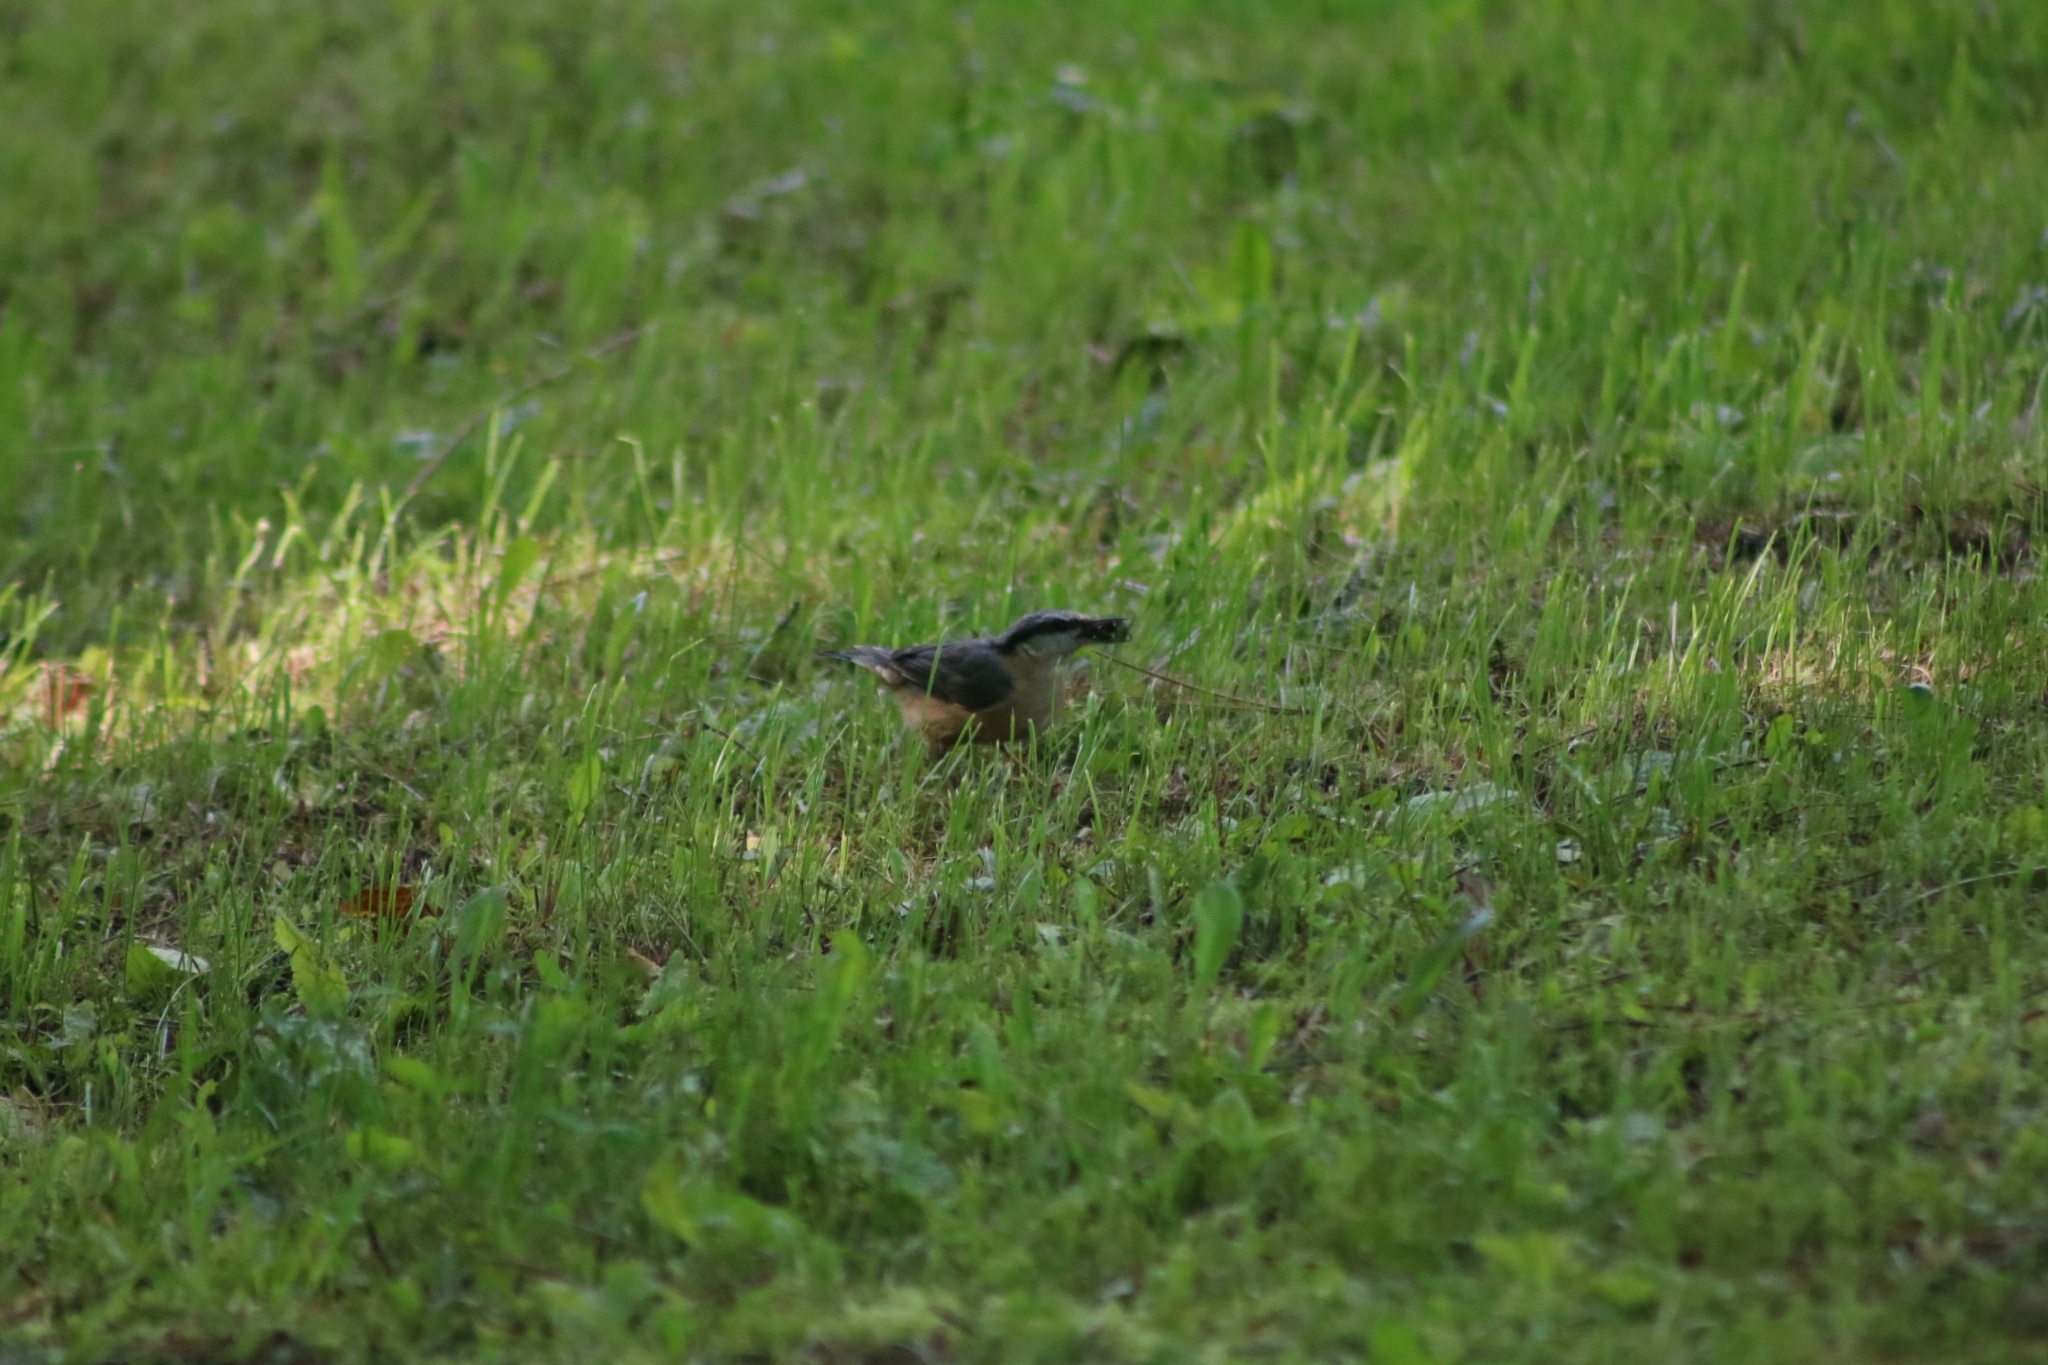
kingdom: Animalia
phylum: Chordata
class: Aves
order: Passeriformes
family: Sittidae
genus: Sitta
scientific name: Sitta europaea
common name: Eurasian nuthatch
